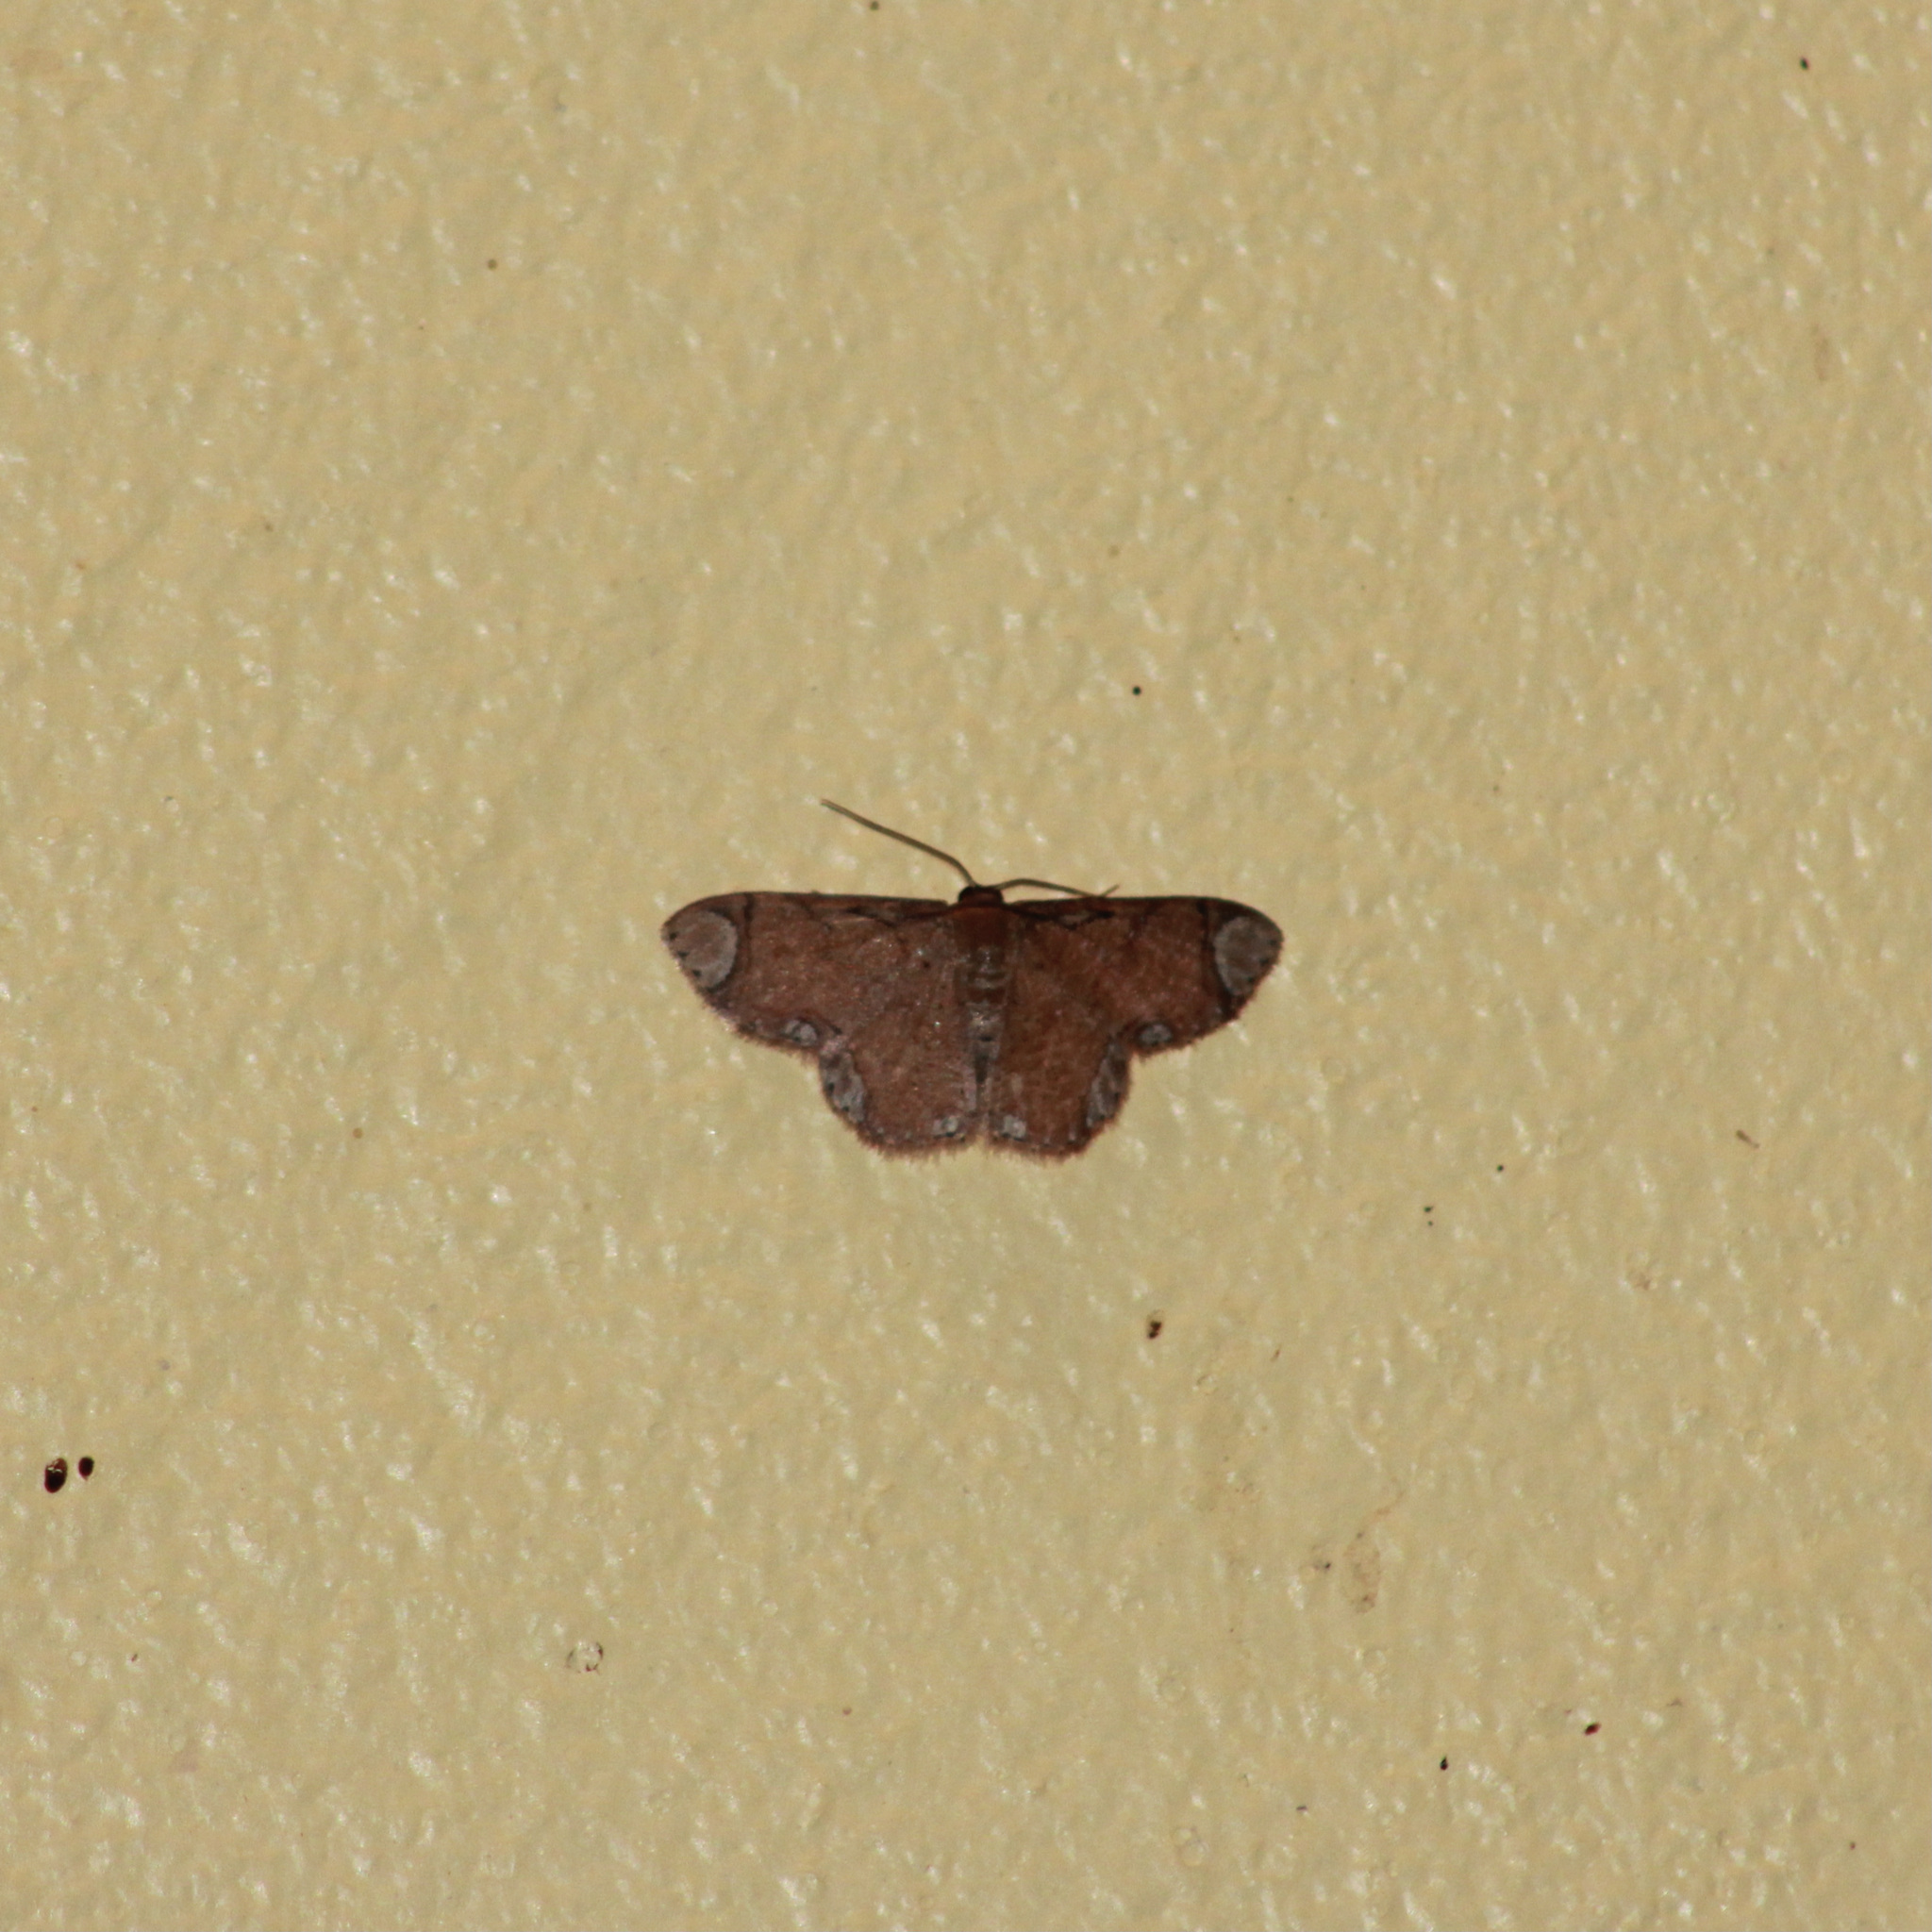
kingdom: Animalia
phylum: Arthropoda
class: Insecta
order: Lepidoptera
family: Geometridae
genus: Lipotaxia
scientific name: Lipotaxia rubicunda
